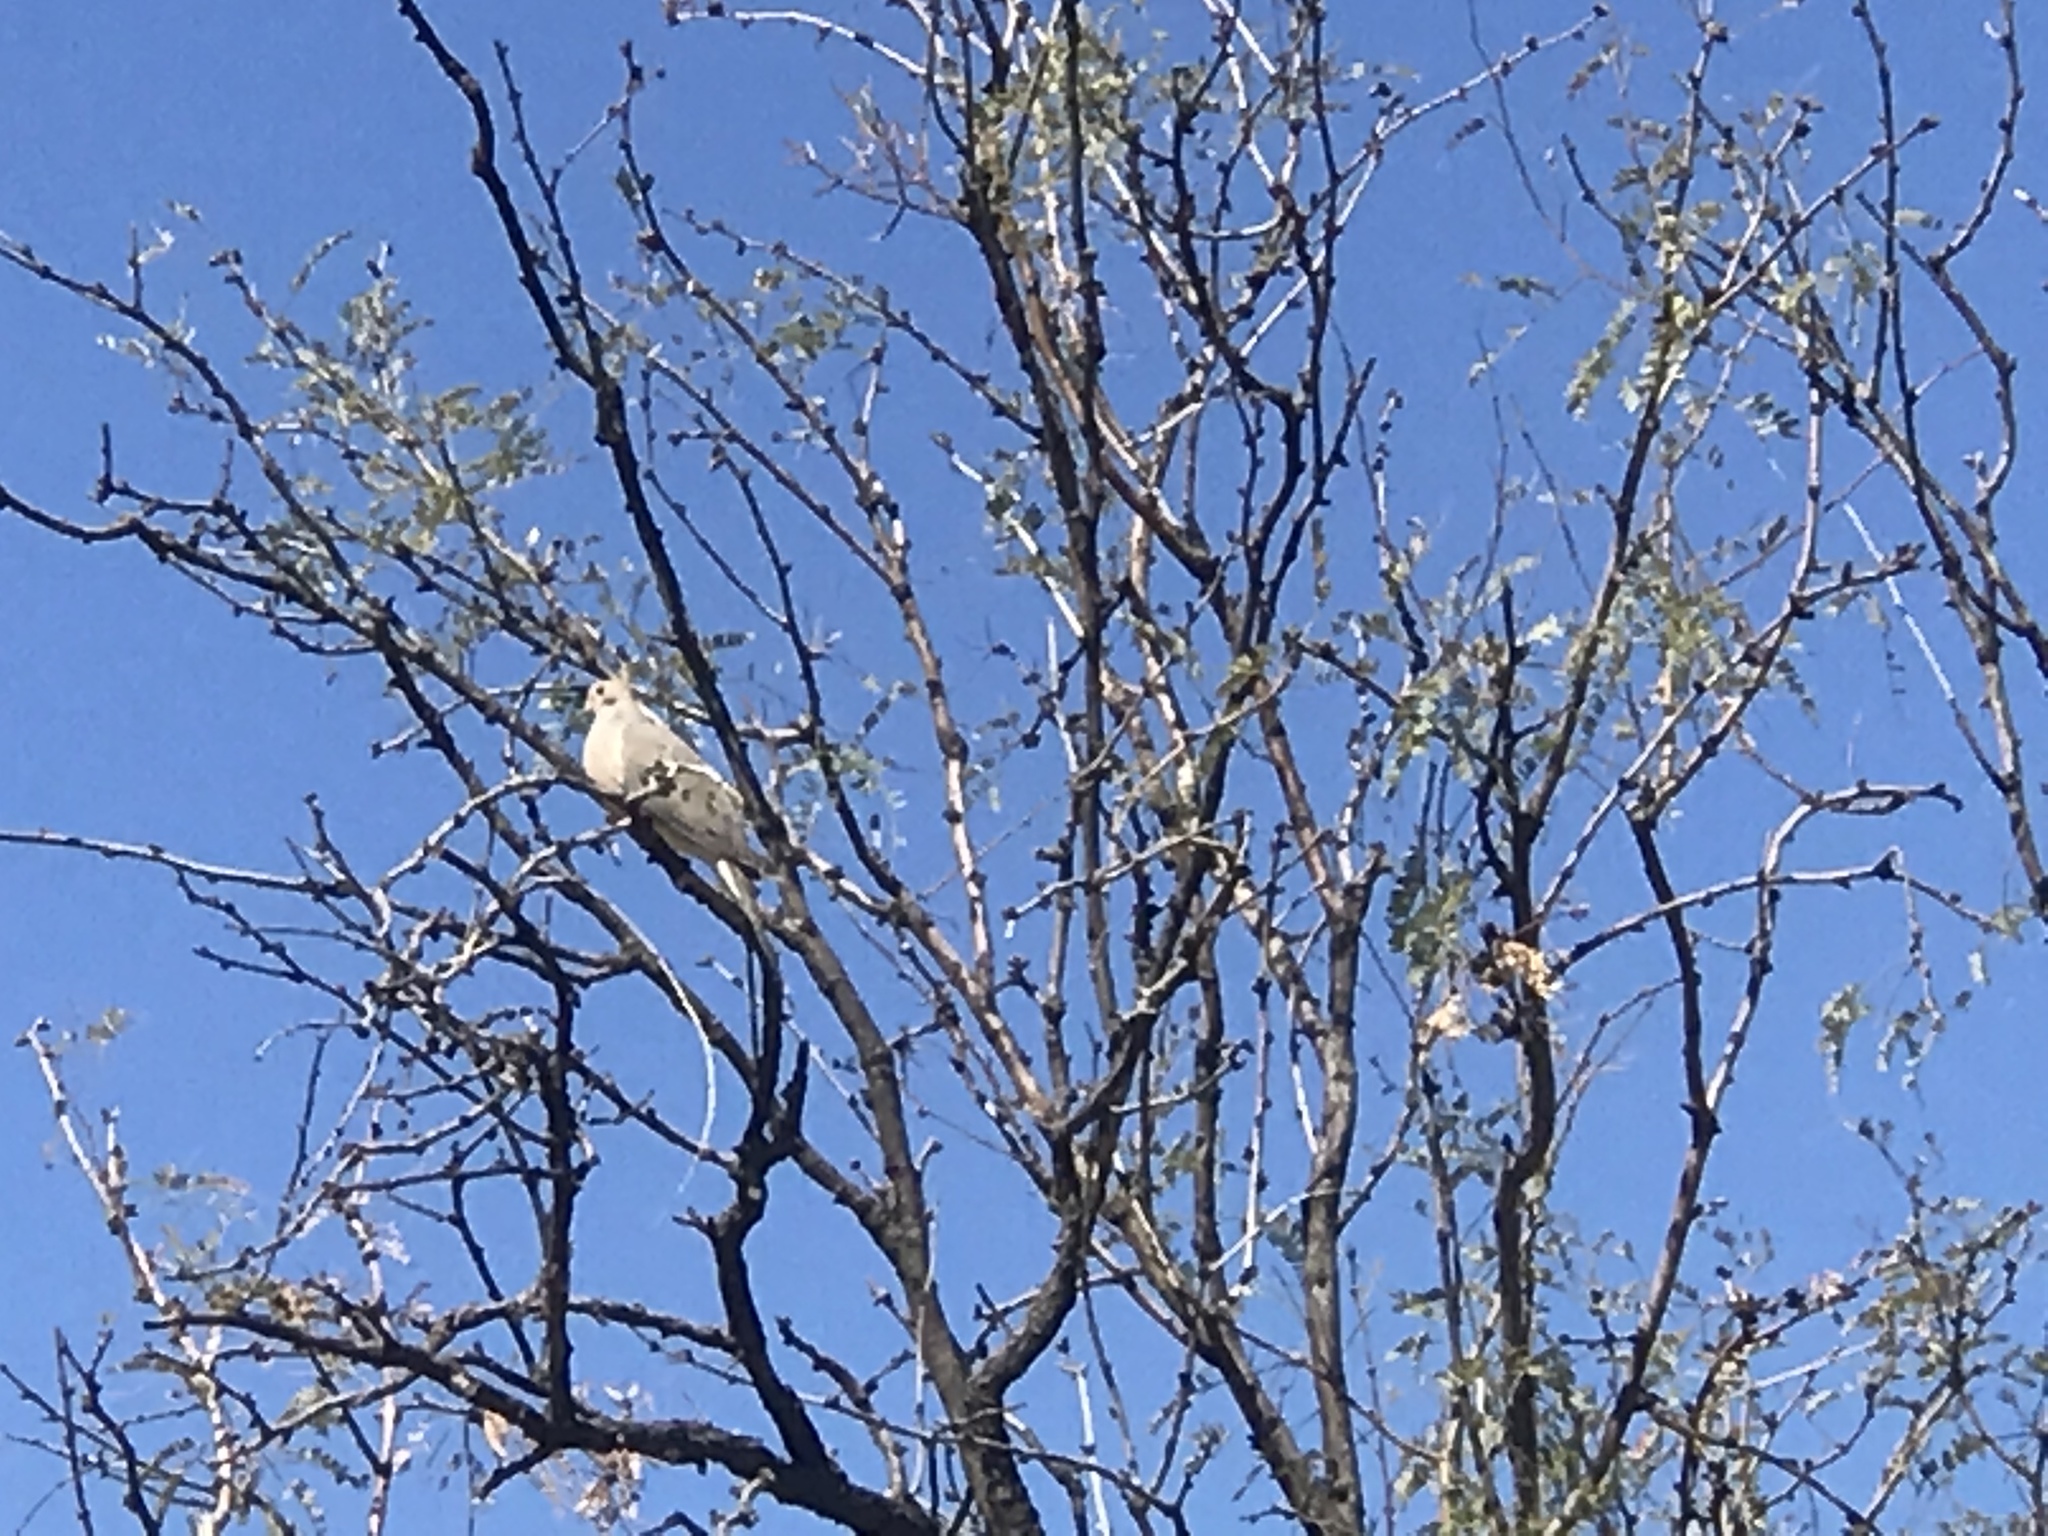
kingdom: Animalia
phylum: Chordata
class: Aves
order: Columbiformes
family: Columbidae
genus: Zenaida
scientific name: Zenaida macroura
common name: Mourning dove
